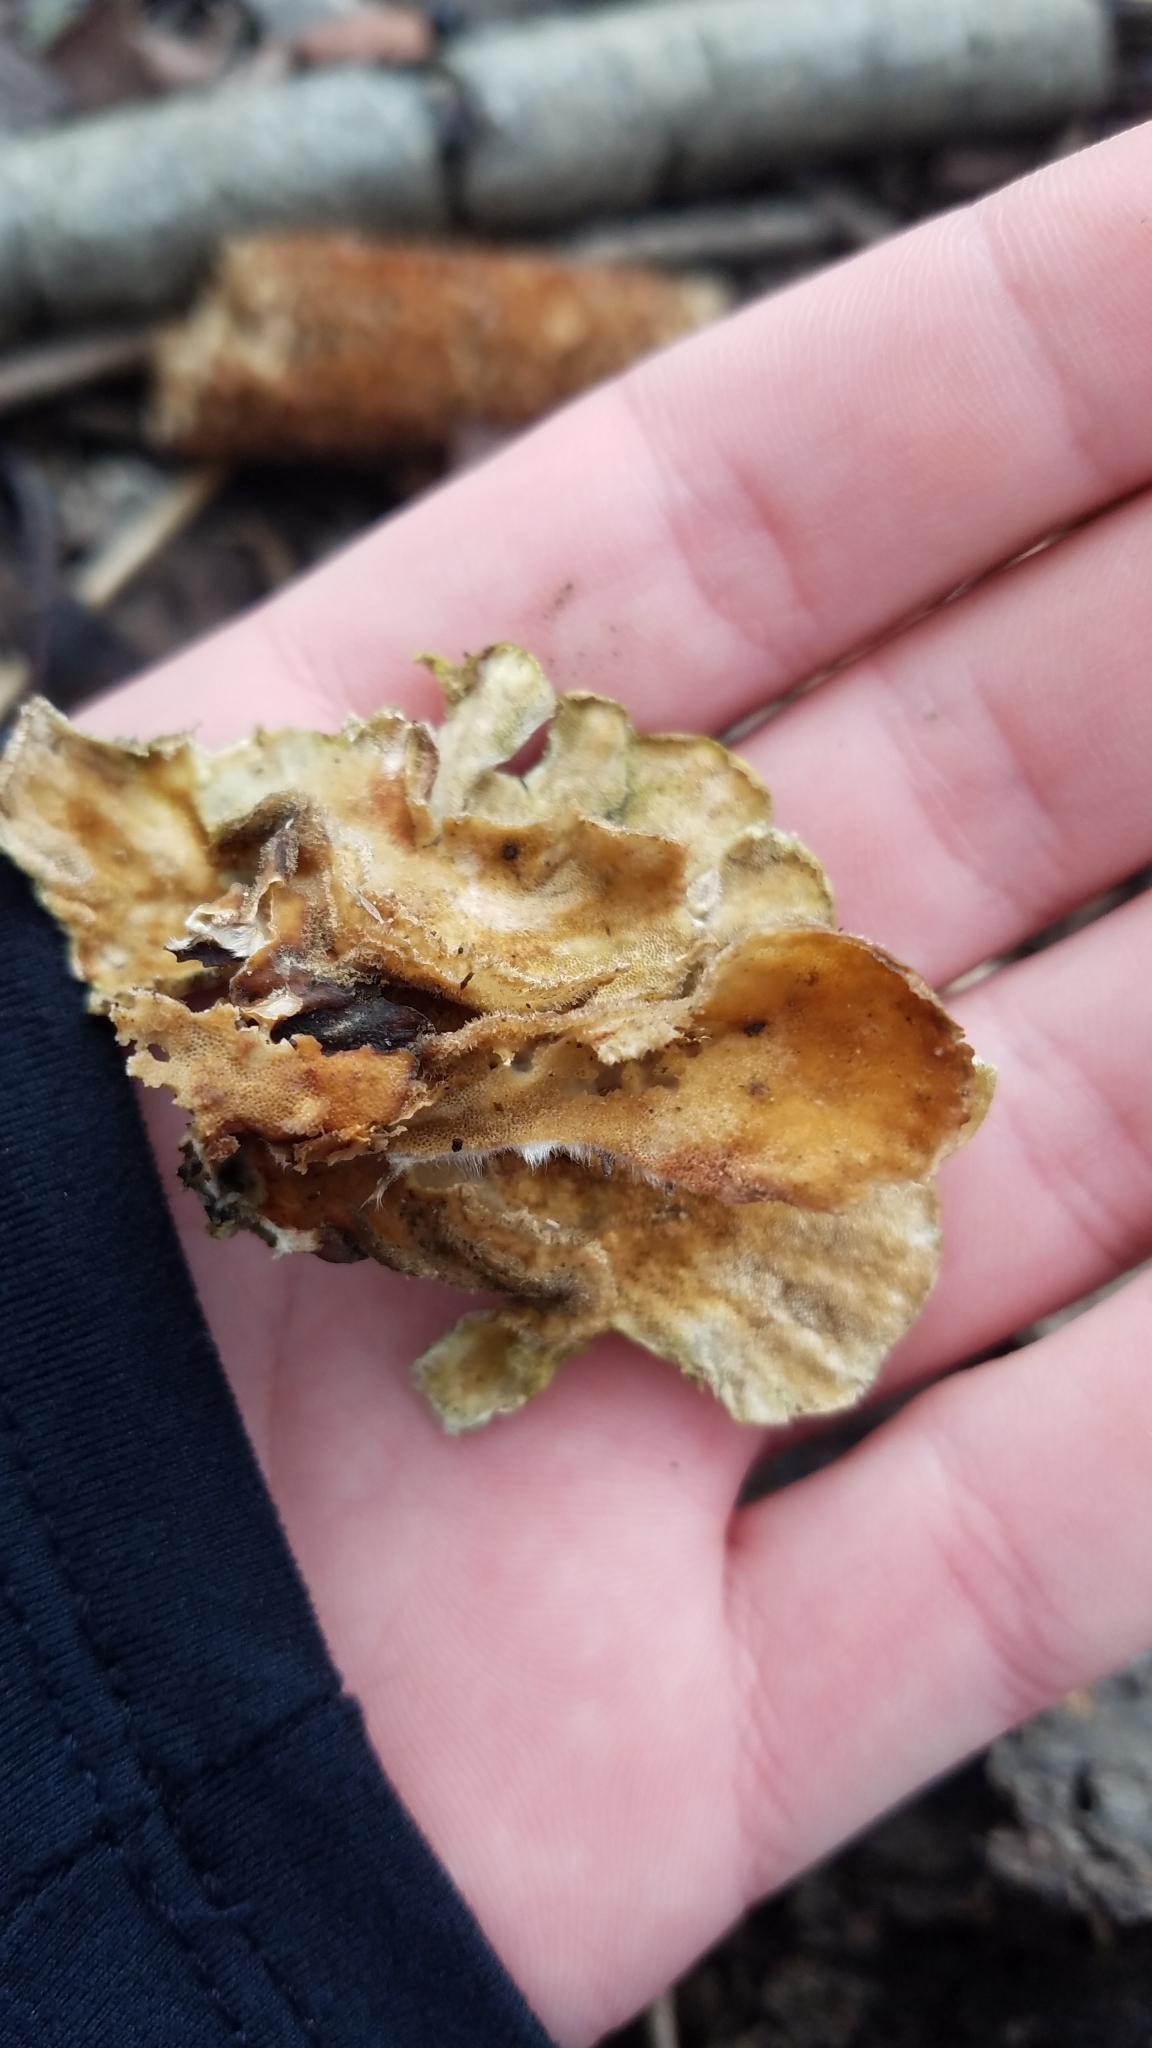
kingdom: Fungi
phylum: Basidiomycota
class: Agaricomycetes
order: Polyporales
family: Polyporaceae
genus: Trametes
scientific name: Trametes versicolor
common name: Turkeytail
